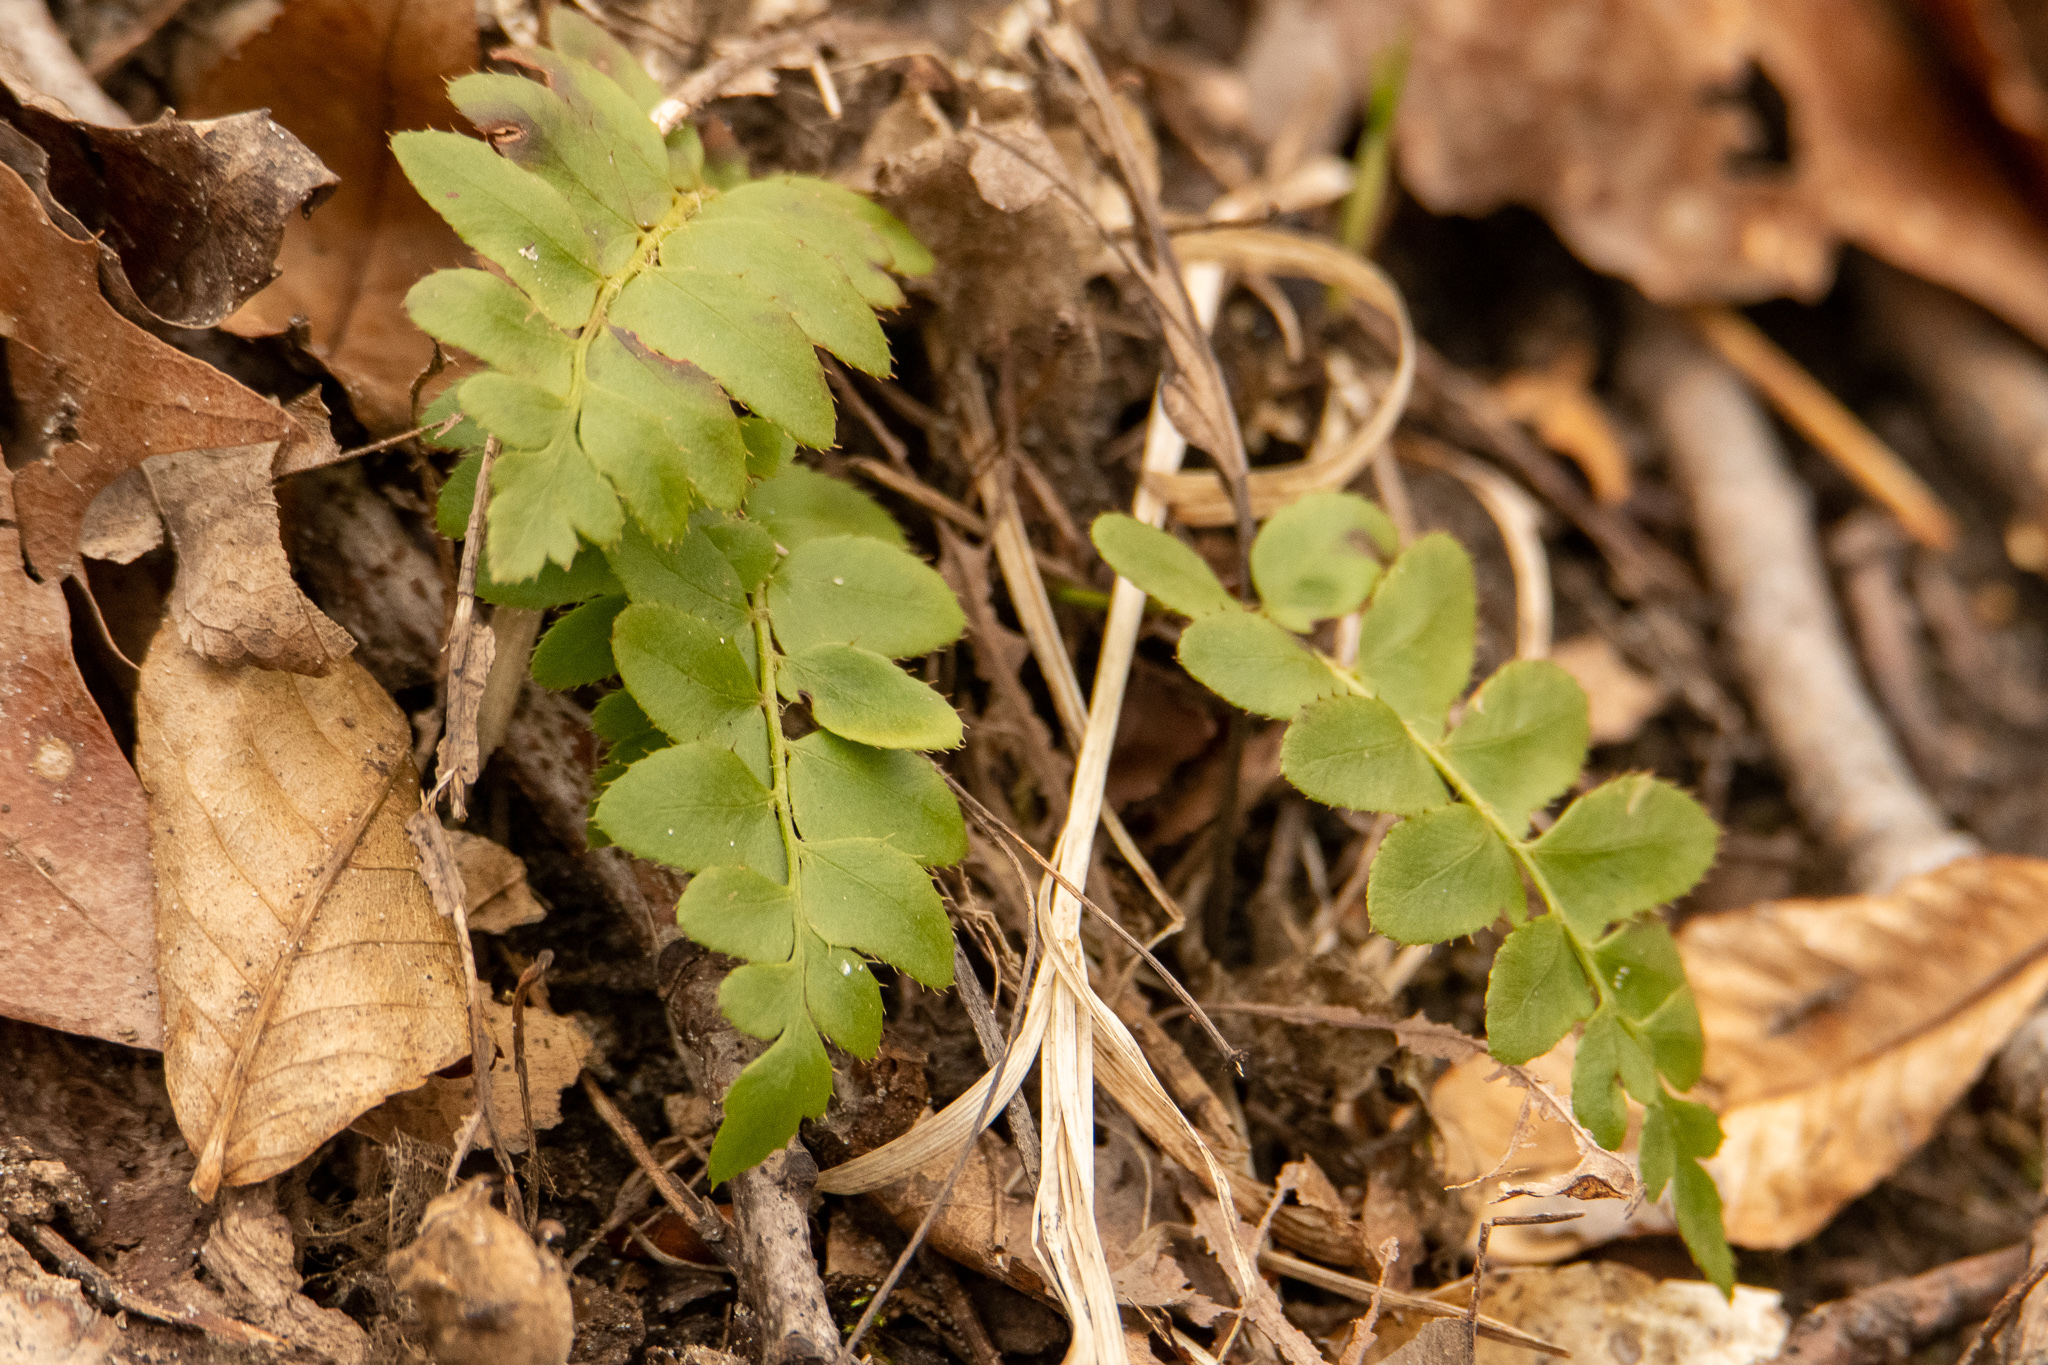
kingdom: Plantae
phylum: Tracheophyta
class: Polypodiopsida
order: Polypodiales
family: Dryopteridaceae
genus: Polystichum
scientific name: Polystichum acrostichoides
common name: Christmas fern
